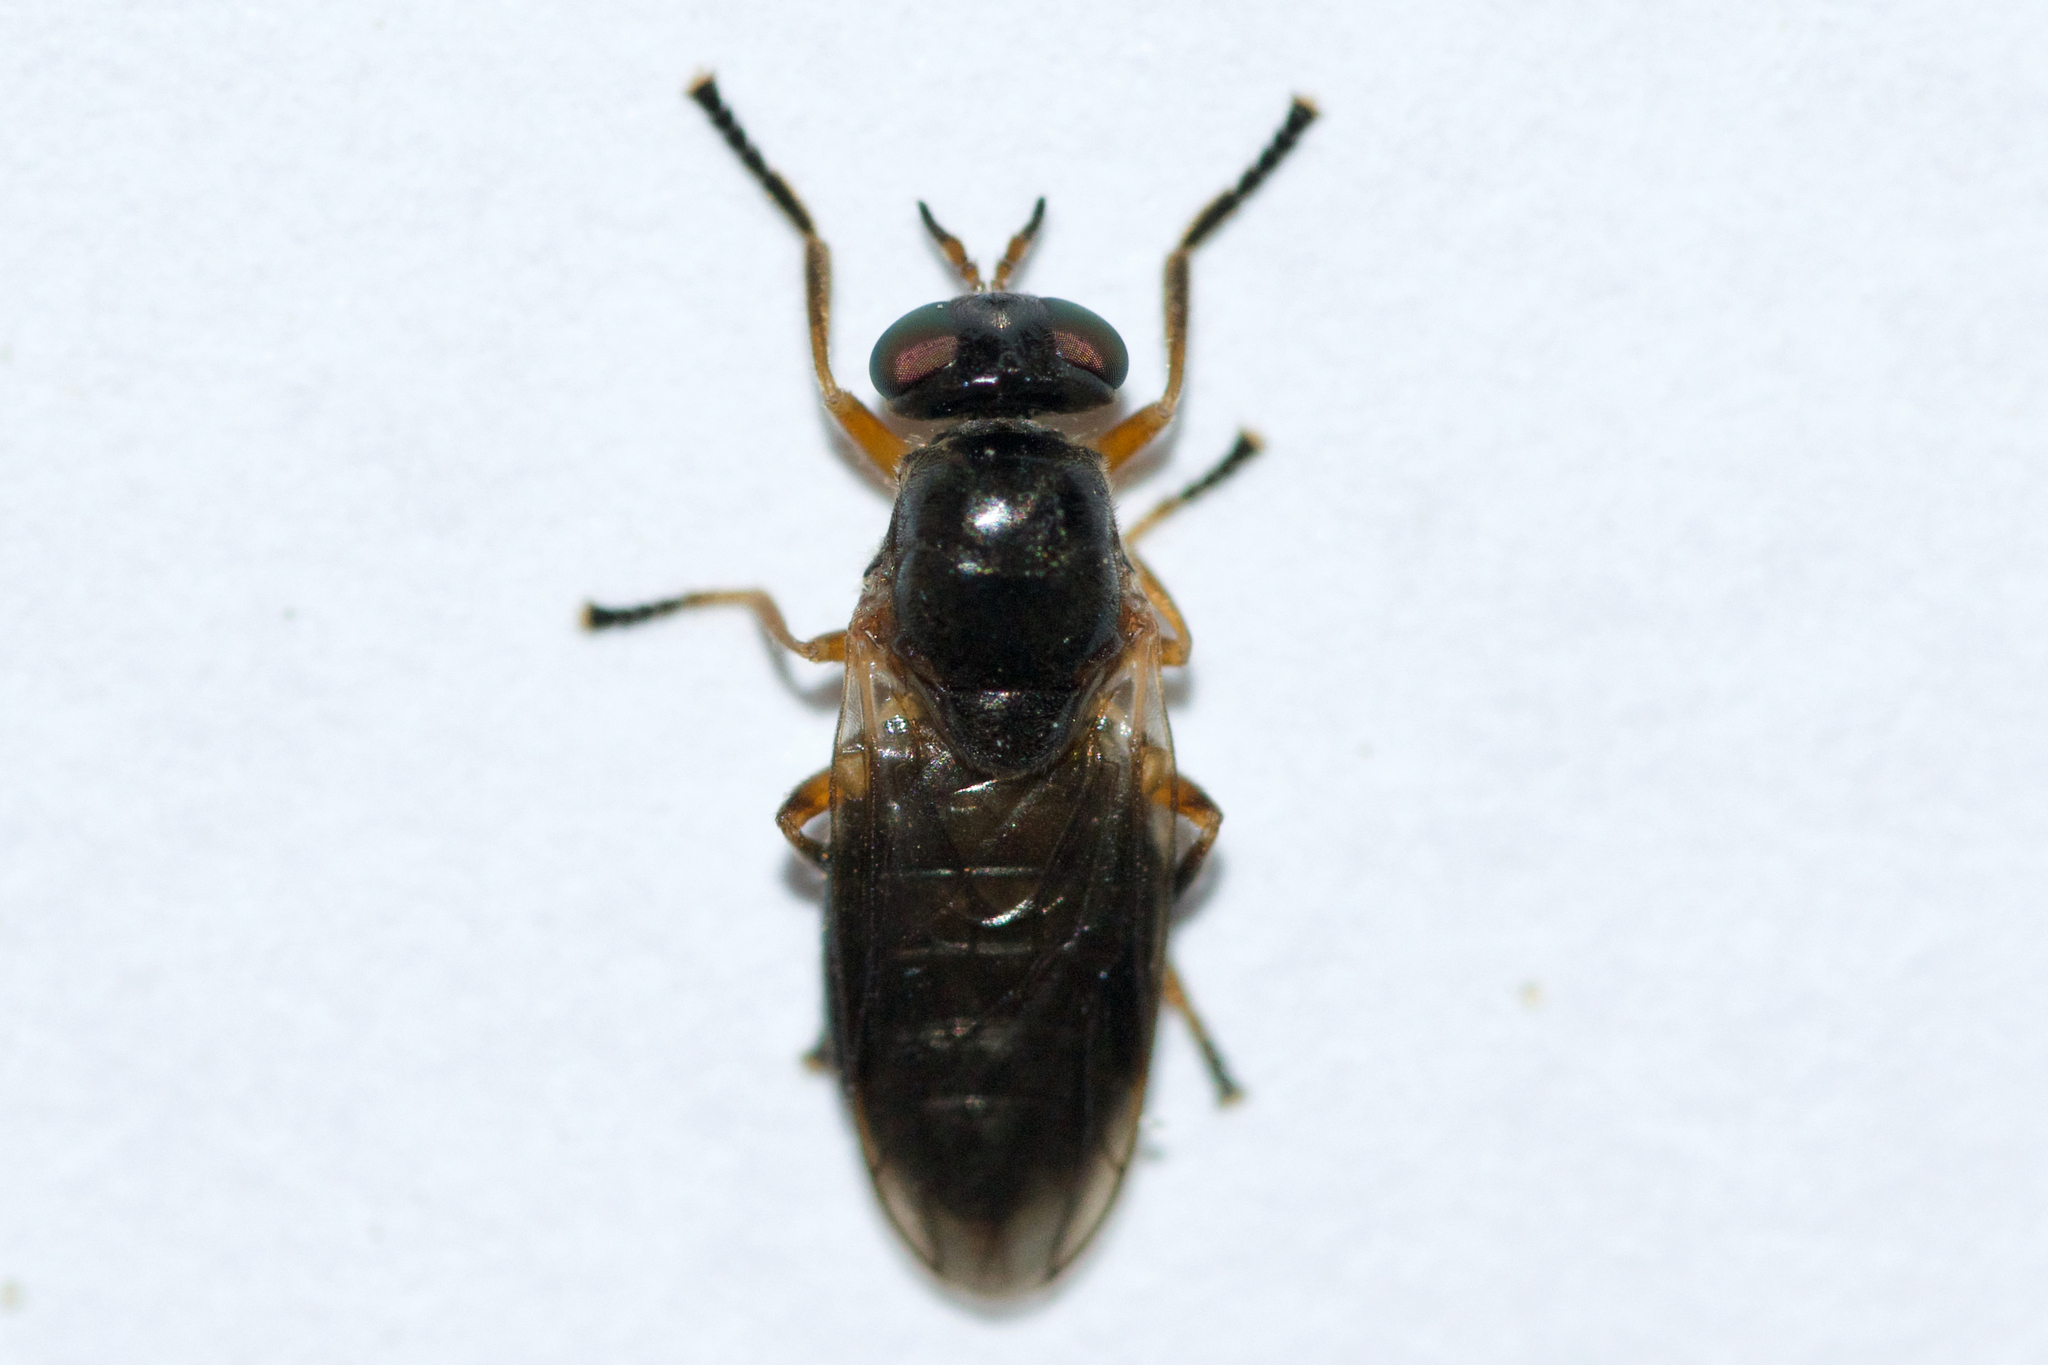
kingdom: Animalia
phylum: Arthropoda
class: Insecta
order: Diptera
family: Stratiomyidae
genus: Allognosta
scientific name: Allognosta fuscitarsis
